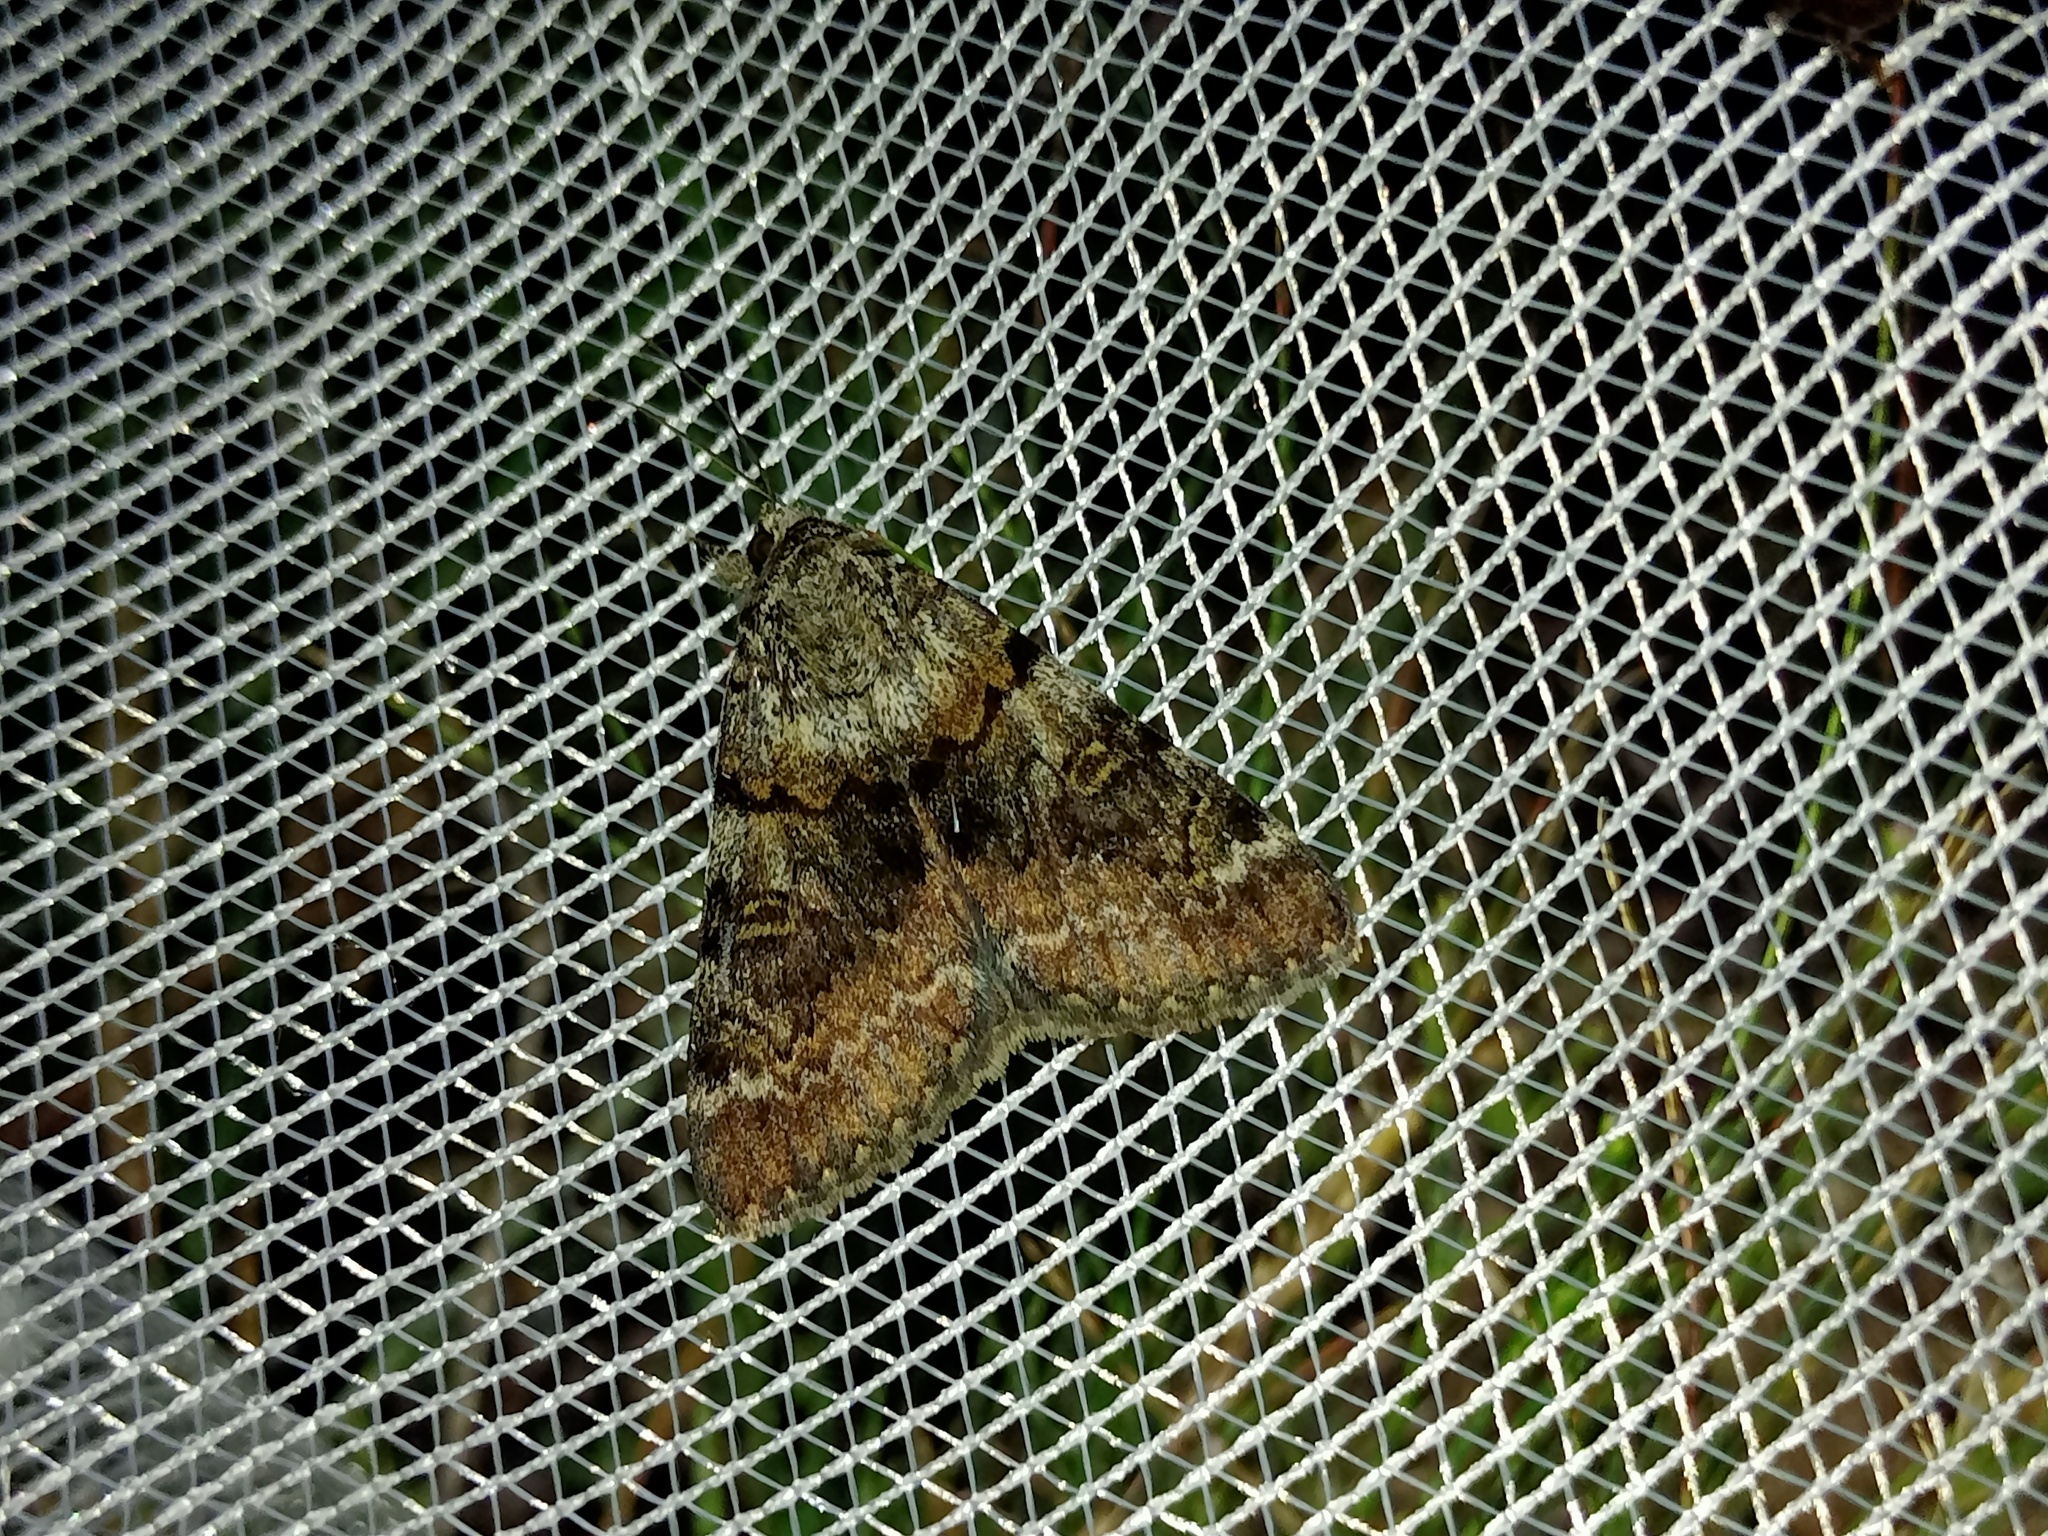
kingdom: Animalia
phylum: Arthropoda
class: Insecta
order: Lepidoptera
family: Erebidae
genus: Catocala
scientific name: Catocala nymphagoga
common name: Oak yellow underwing
